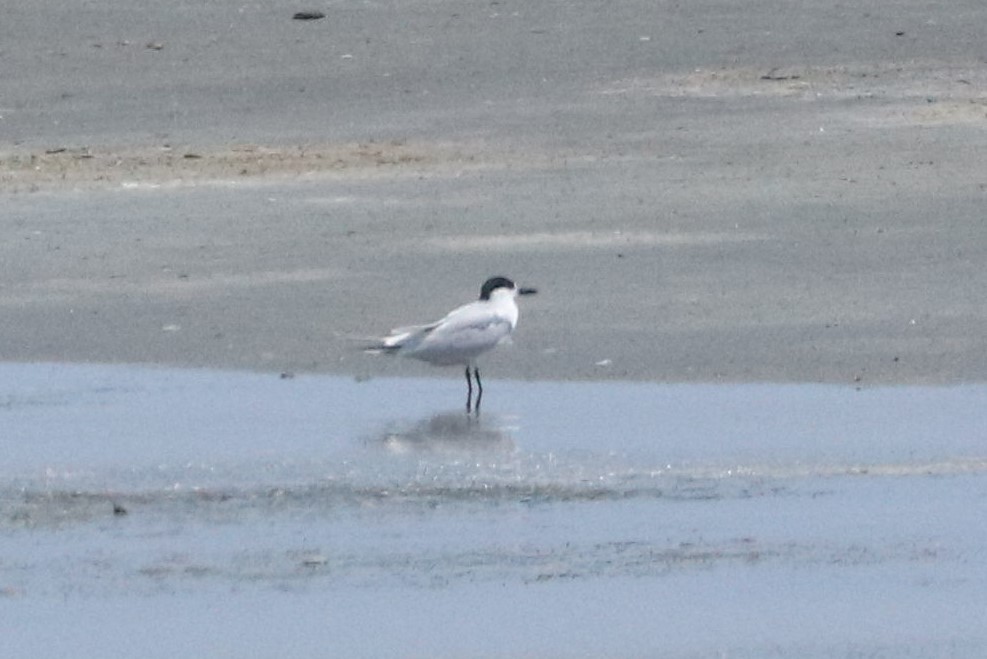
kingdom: Animalia
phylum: Chordata
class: Aves
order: Charadriiformes
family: Laridae
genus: Gelochelidon
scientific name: Gelochelidon nilotica
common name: Gull-billed tern
